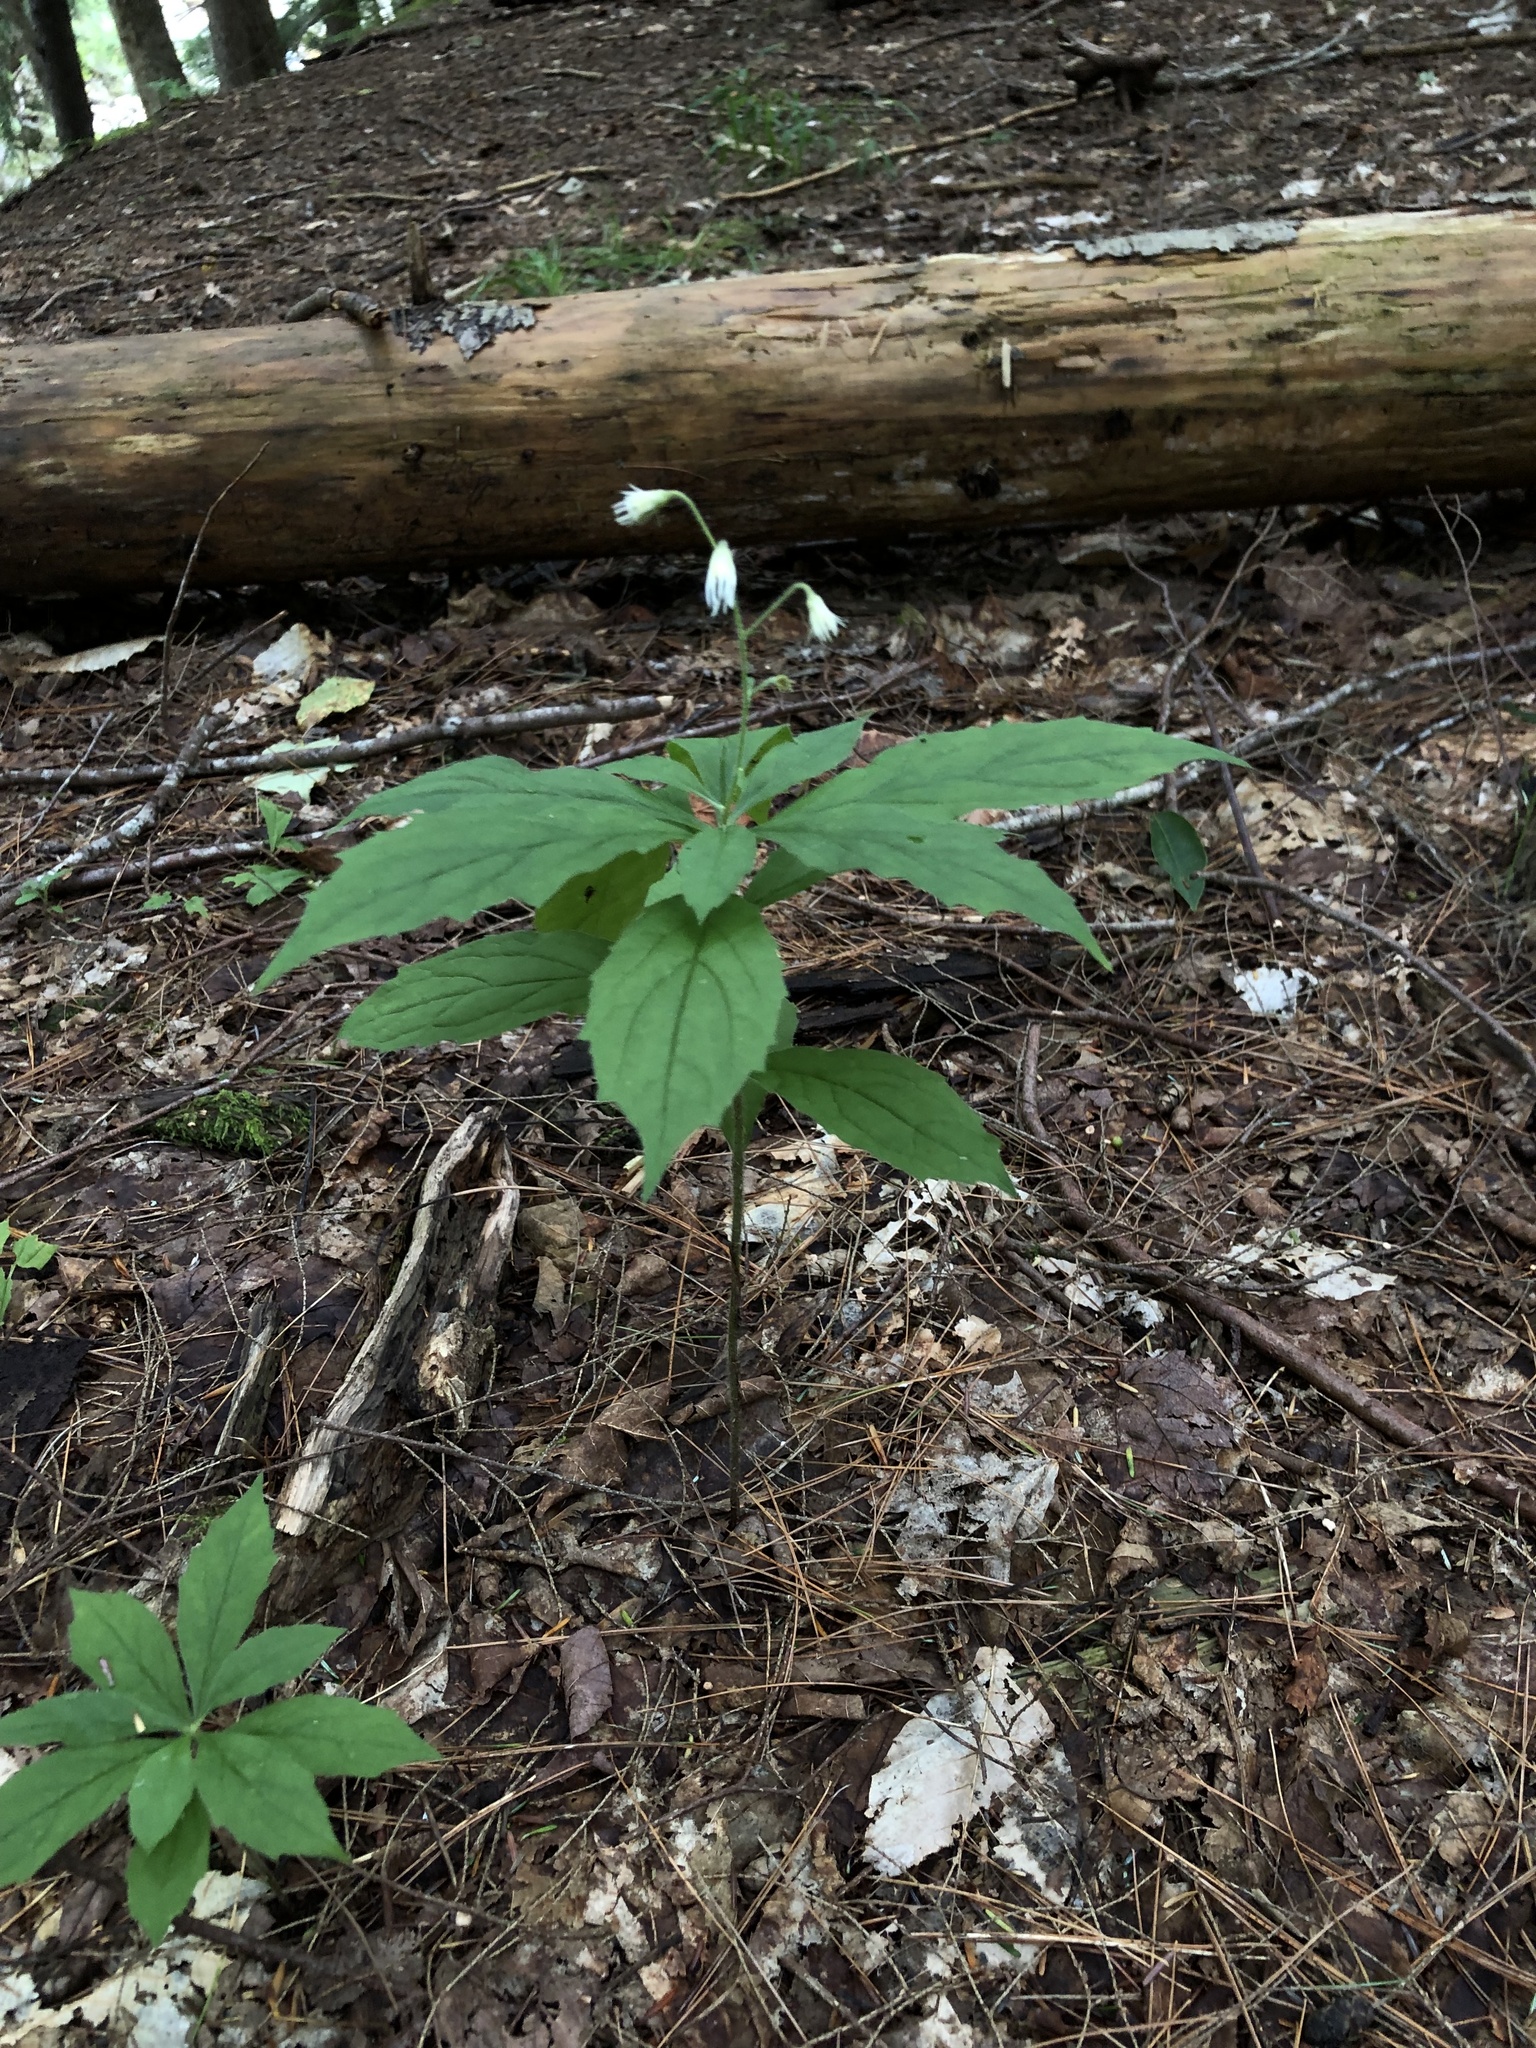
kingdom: Plantae
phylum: Tracheophyta
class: Magnoliopsida
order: Asterales
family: Asteraceae
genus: Oclemena
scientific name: Oclemena acuminata
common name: Mountain aster
